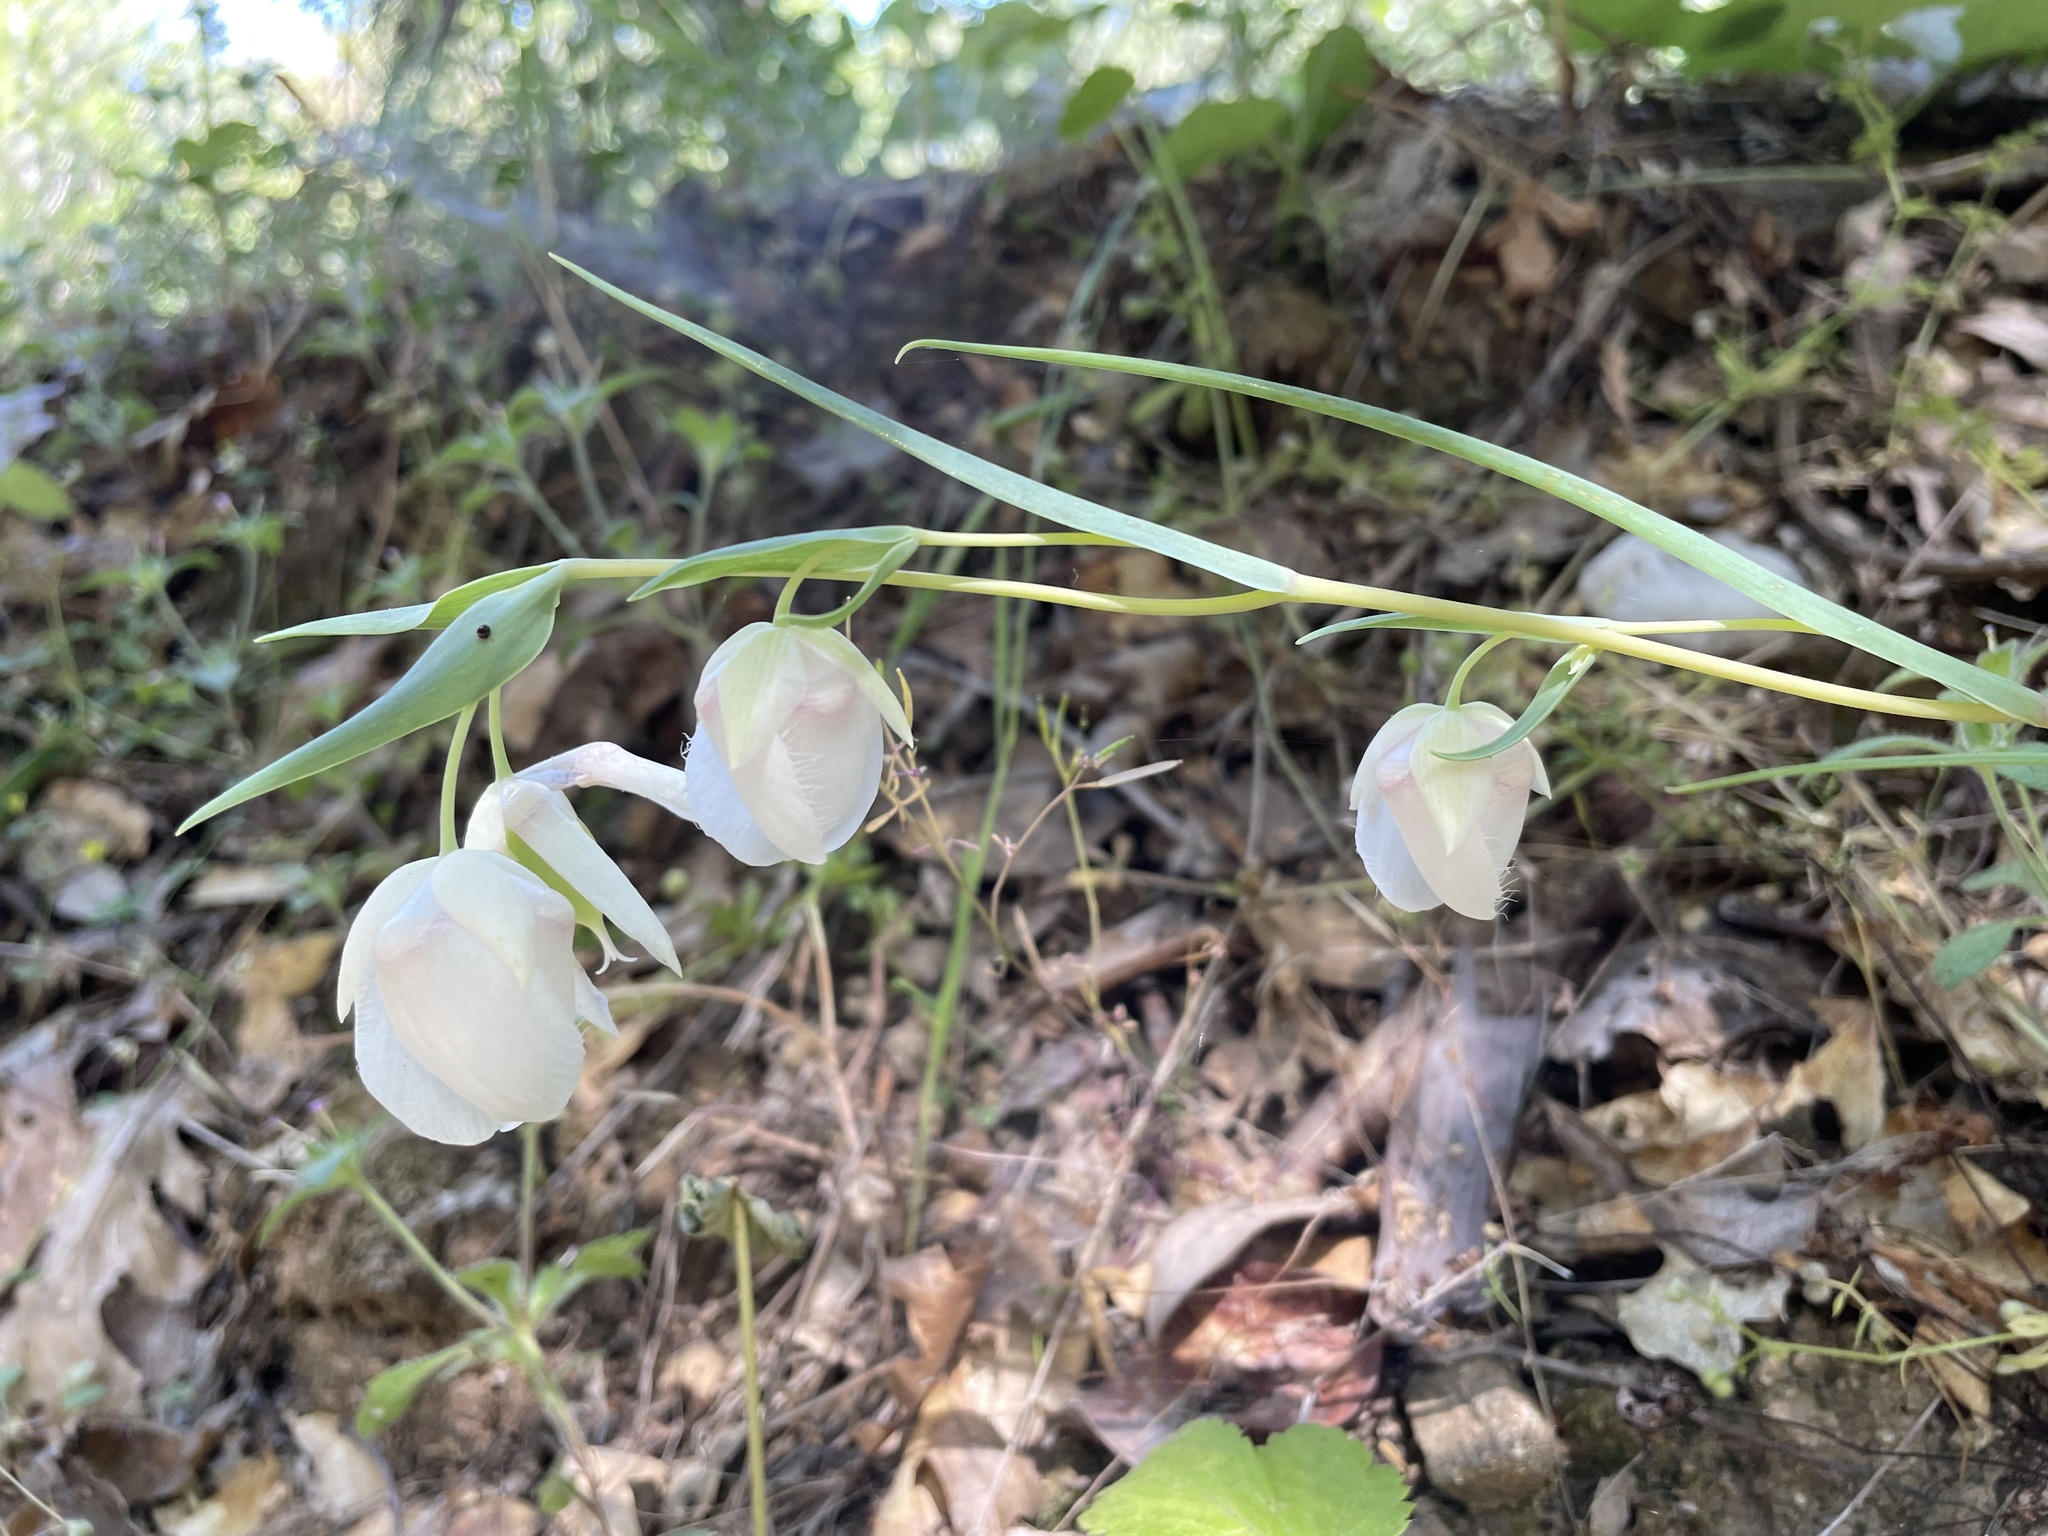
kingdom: Plantae
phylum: Tracheophyta
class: Liliopsida
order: Liliales
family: Liliaceae
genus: Calochortus
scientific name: Calochortus albus
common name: Fairy-lantern
